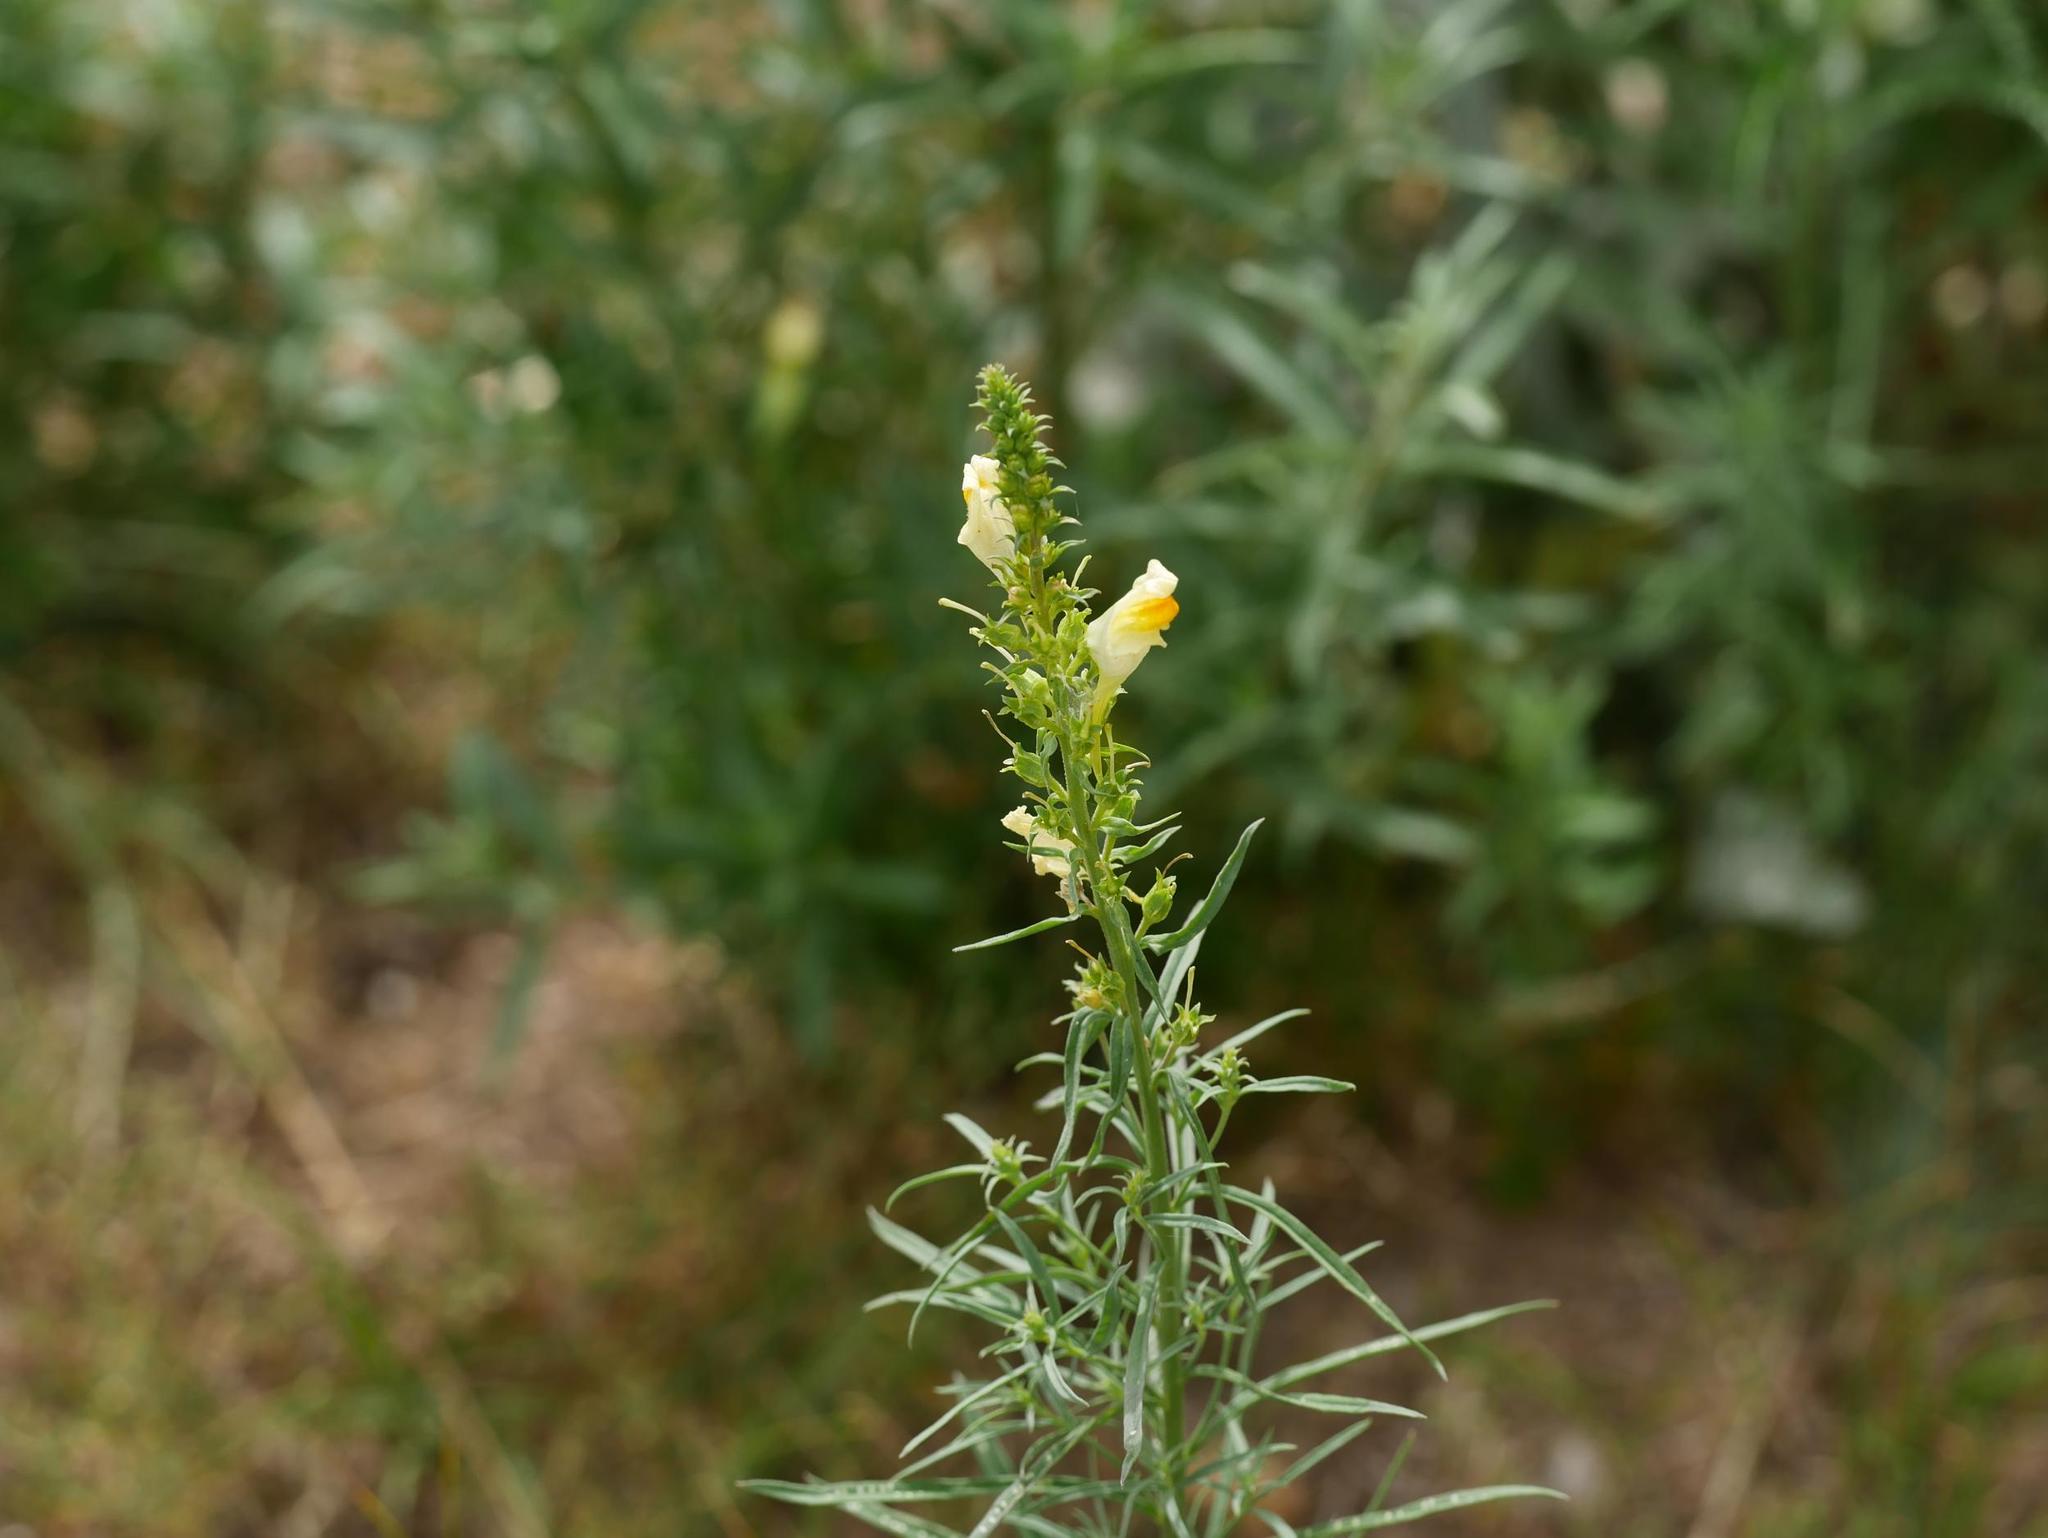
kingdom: Plantae
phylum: Tracheophyta
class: Magnoliopsida
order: Lamiales
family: Plantaginaceae
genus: Linaria
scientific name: Linaria vulgaris
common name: Butter and eggs
